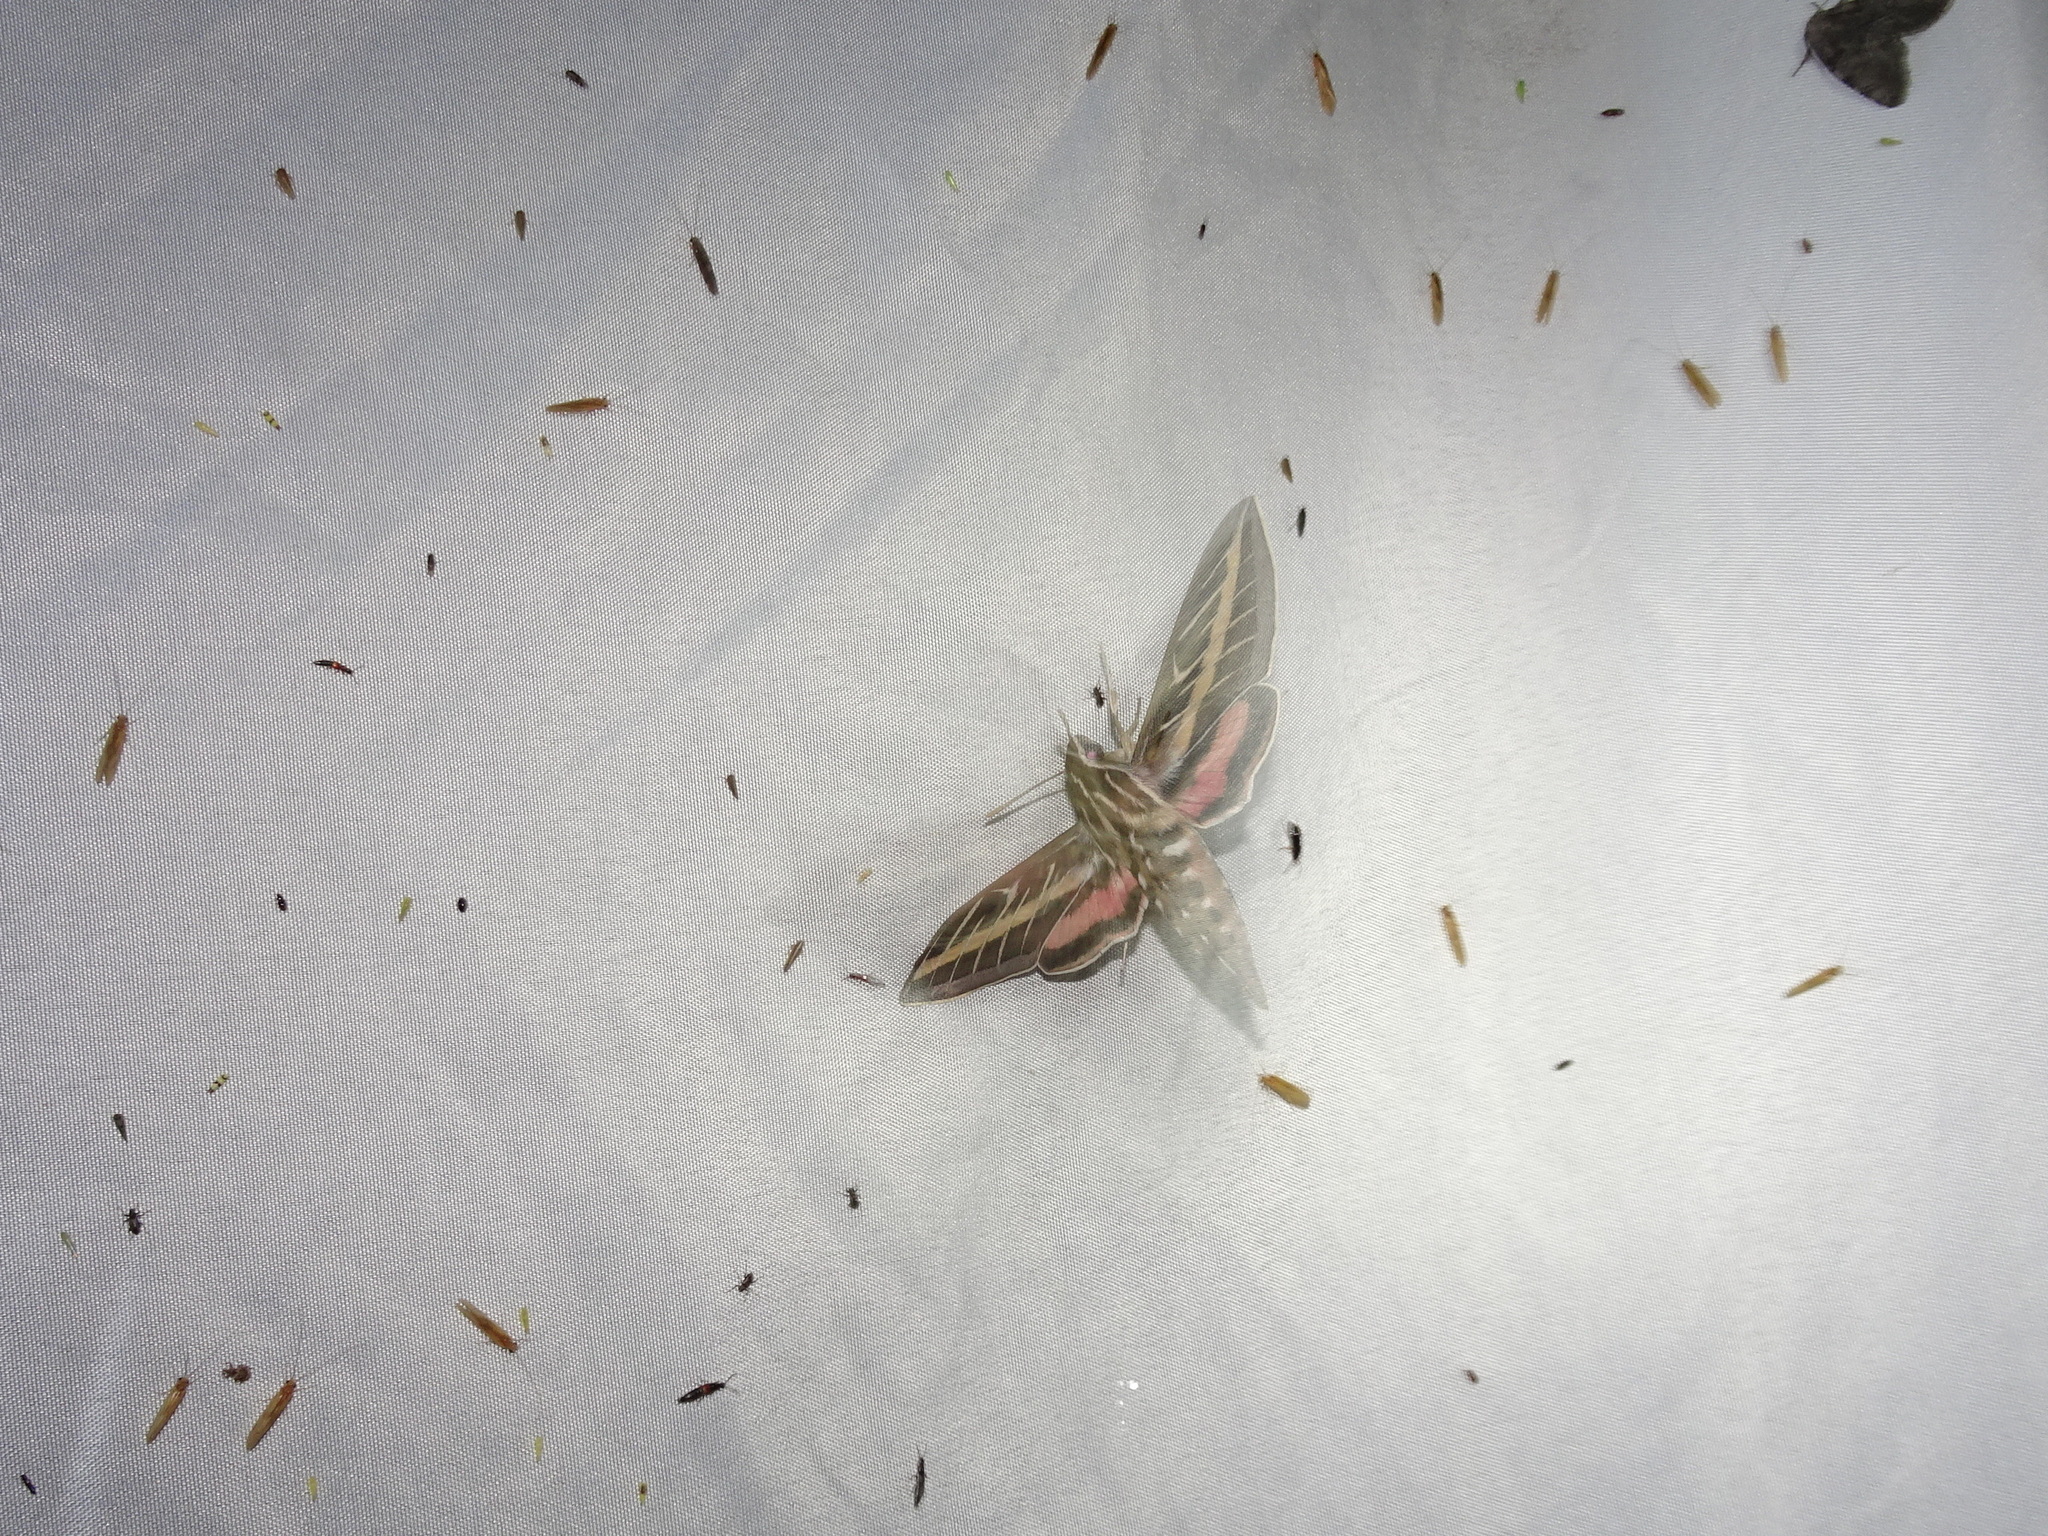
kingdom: Animalia
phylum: Arthropoda
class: Insecta
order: Lepidoptera
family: Sphingidae
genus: Hyles
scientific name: Hyles lineata
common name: White-lined sphinx
